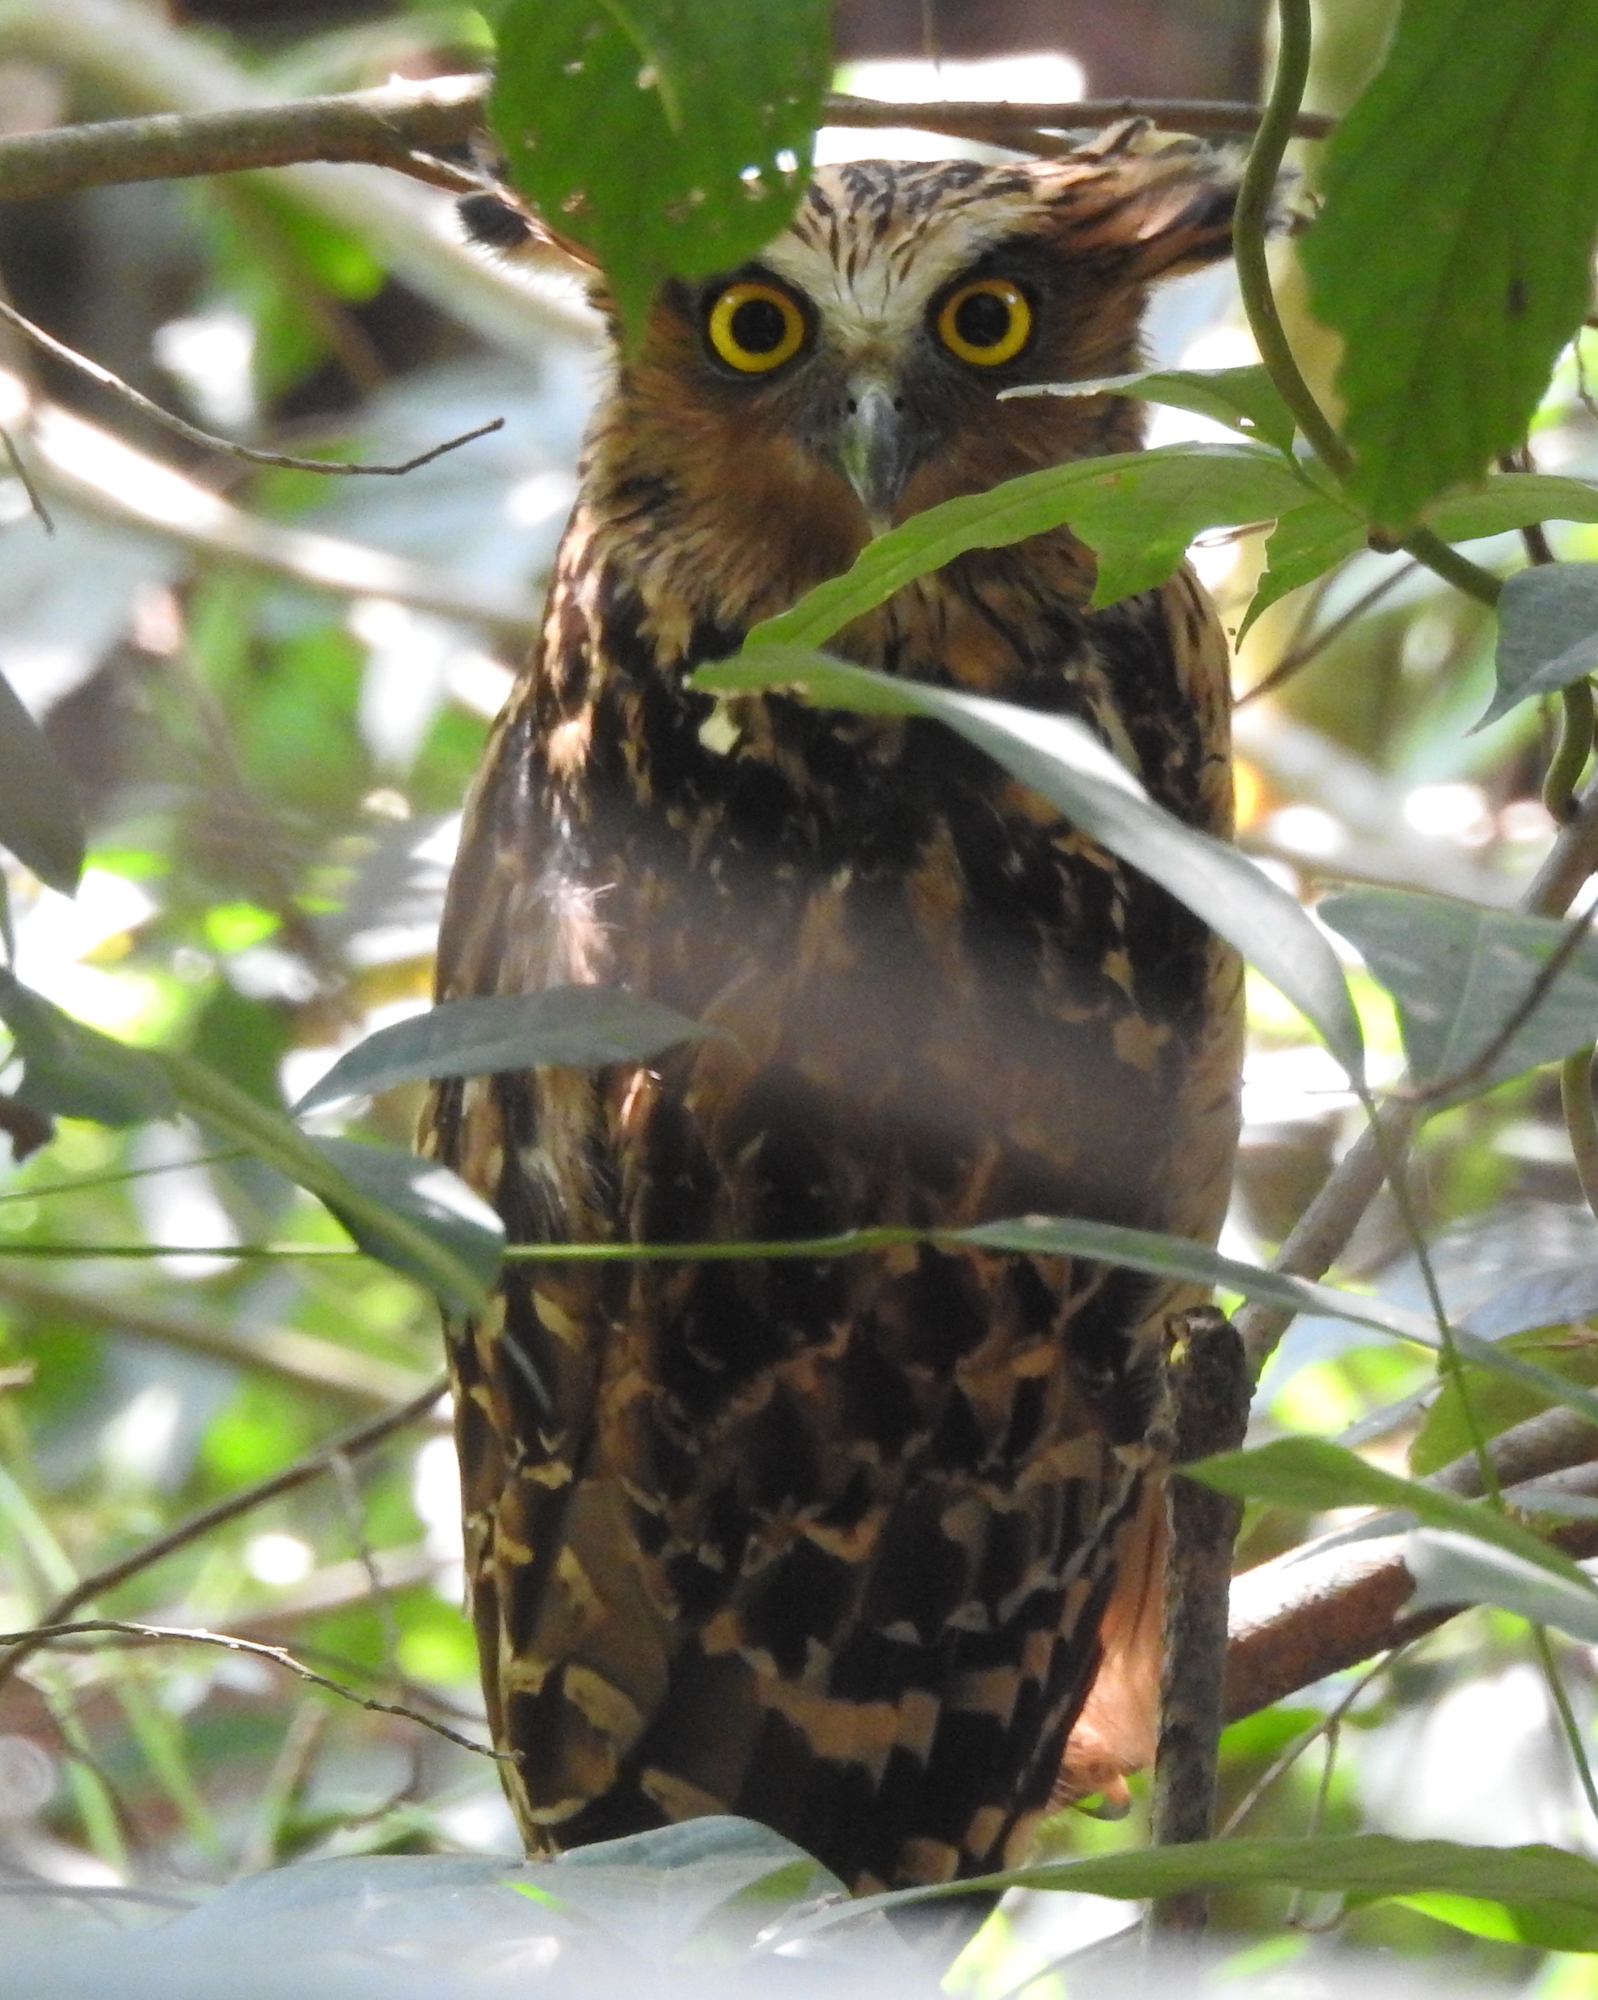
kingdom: Animalia
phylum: Chordata
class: Aves
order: Strigiformes
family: Strigidae
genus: Ketupa
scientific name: Ketupa ketupu
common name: Buffy fish-owl
